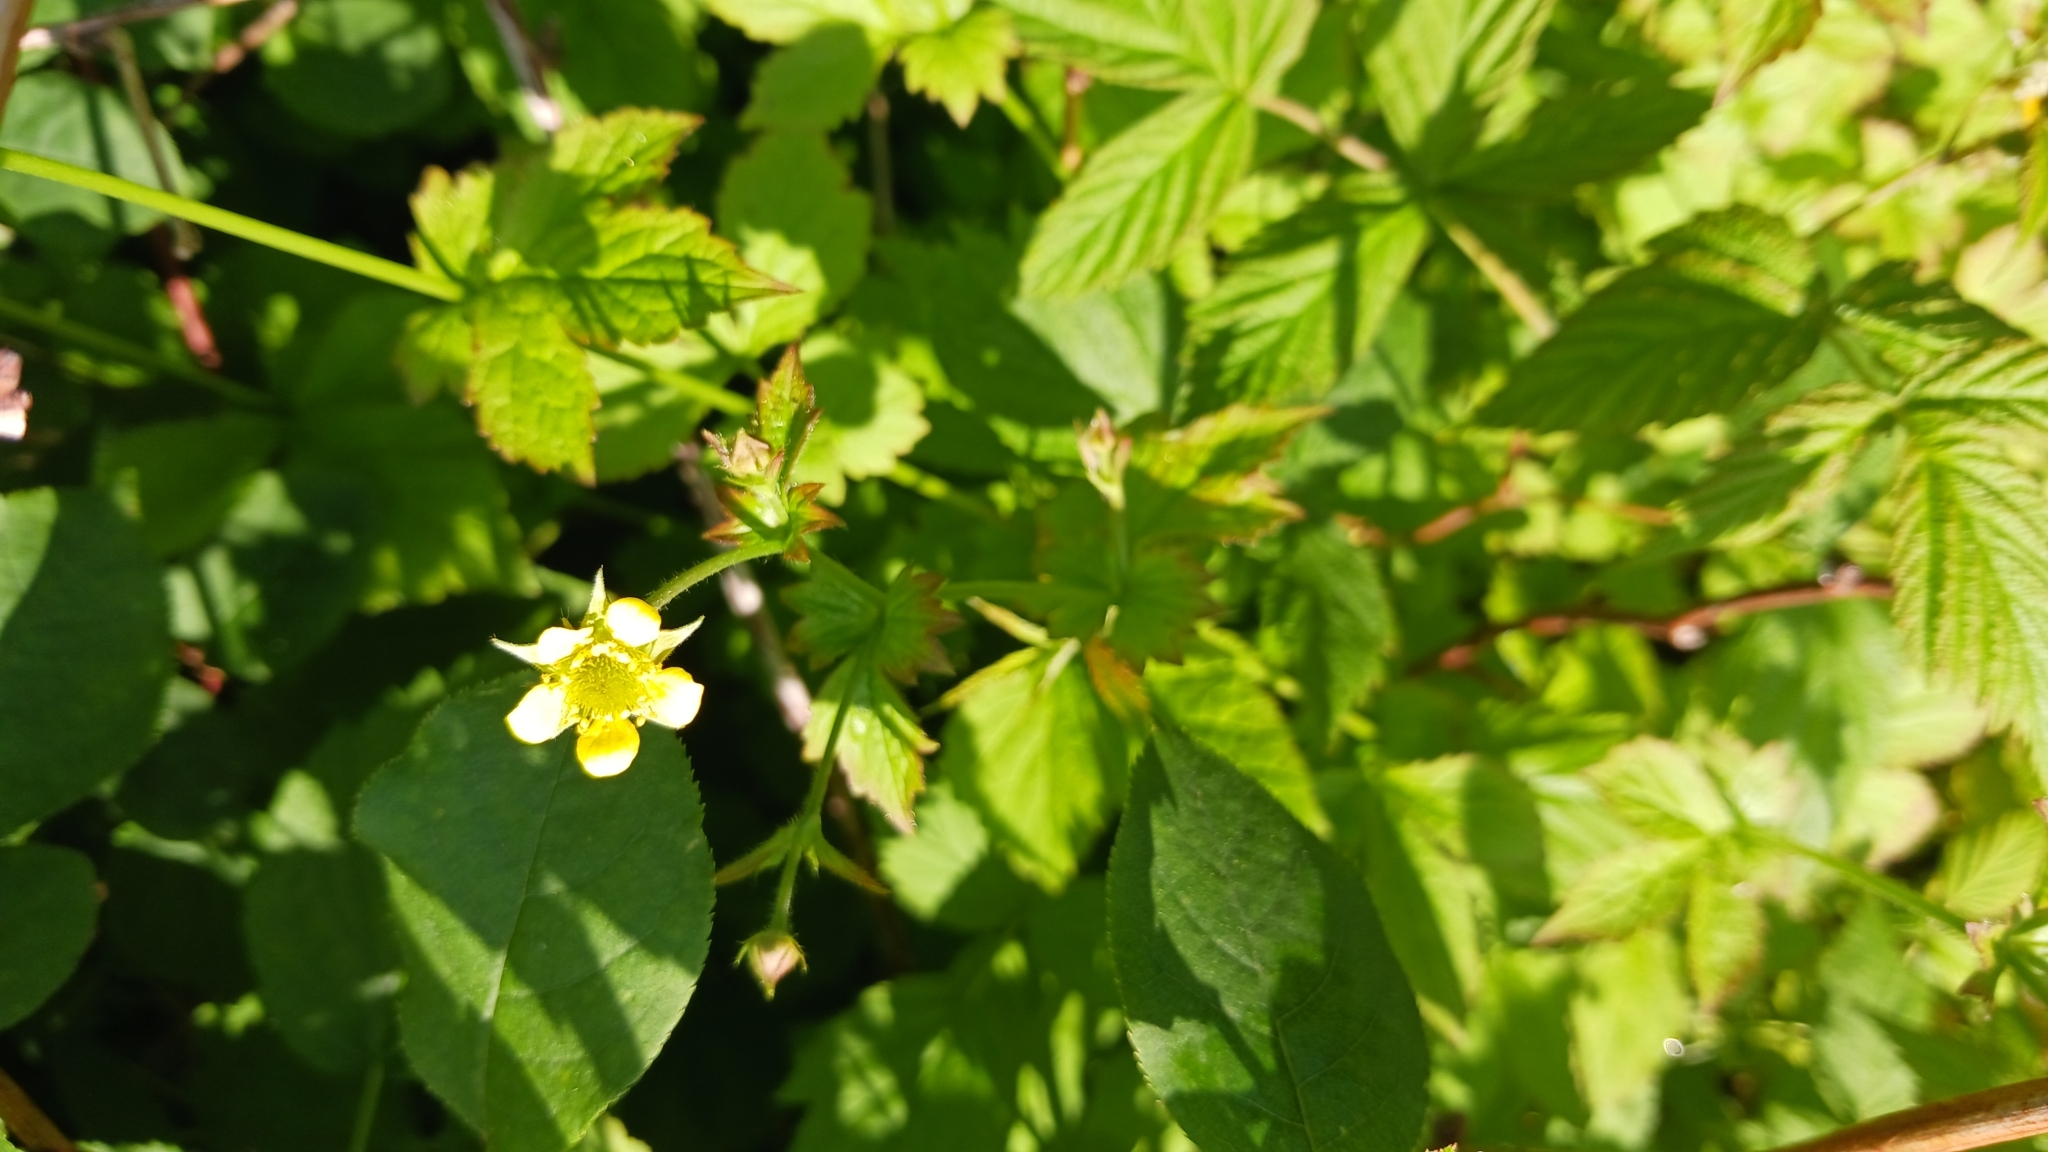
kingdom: Plantae
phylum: Tracheophyta
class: Magnoliopsida
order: Rosales
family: Rosaceae
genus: Geum
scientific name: Geum urbanum
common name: Wood avens
